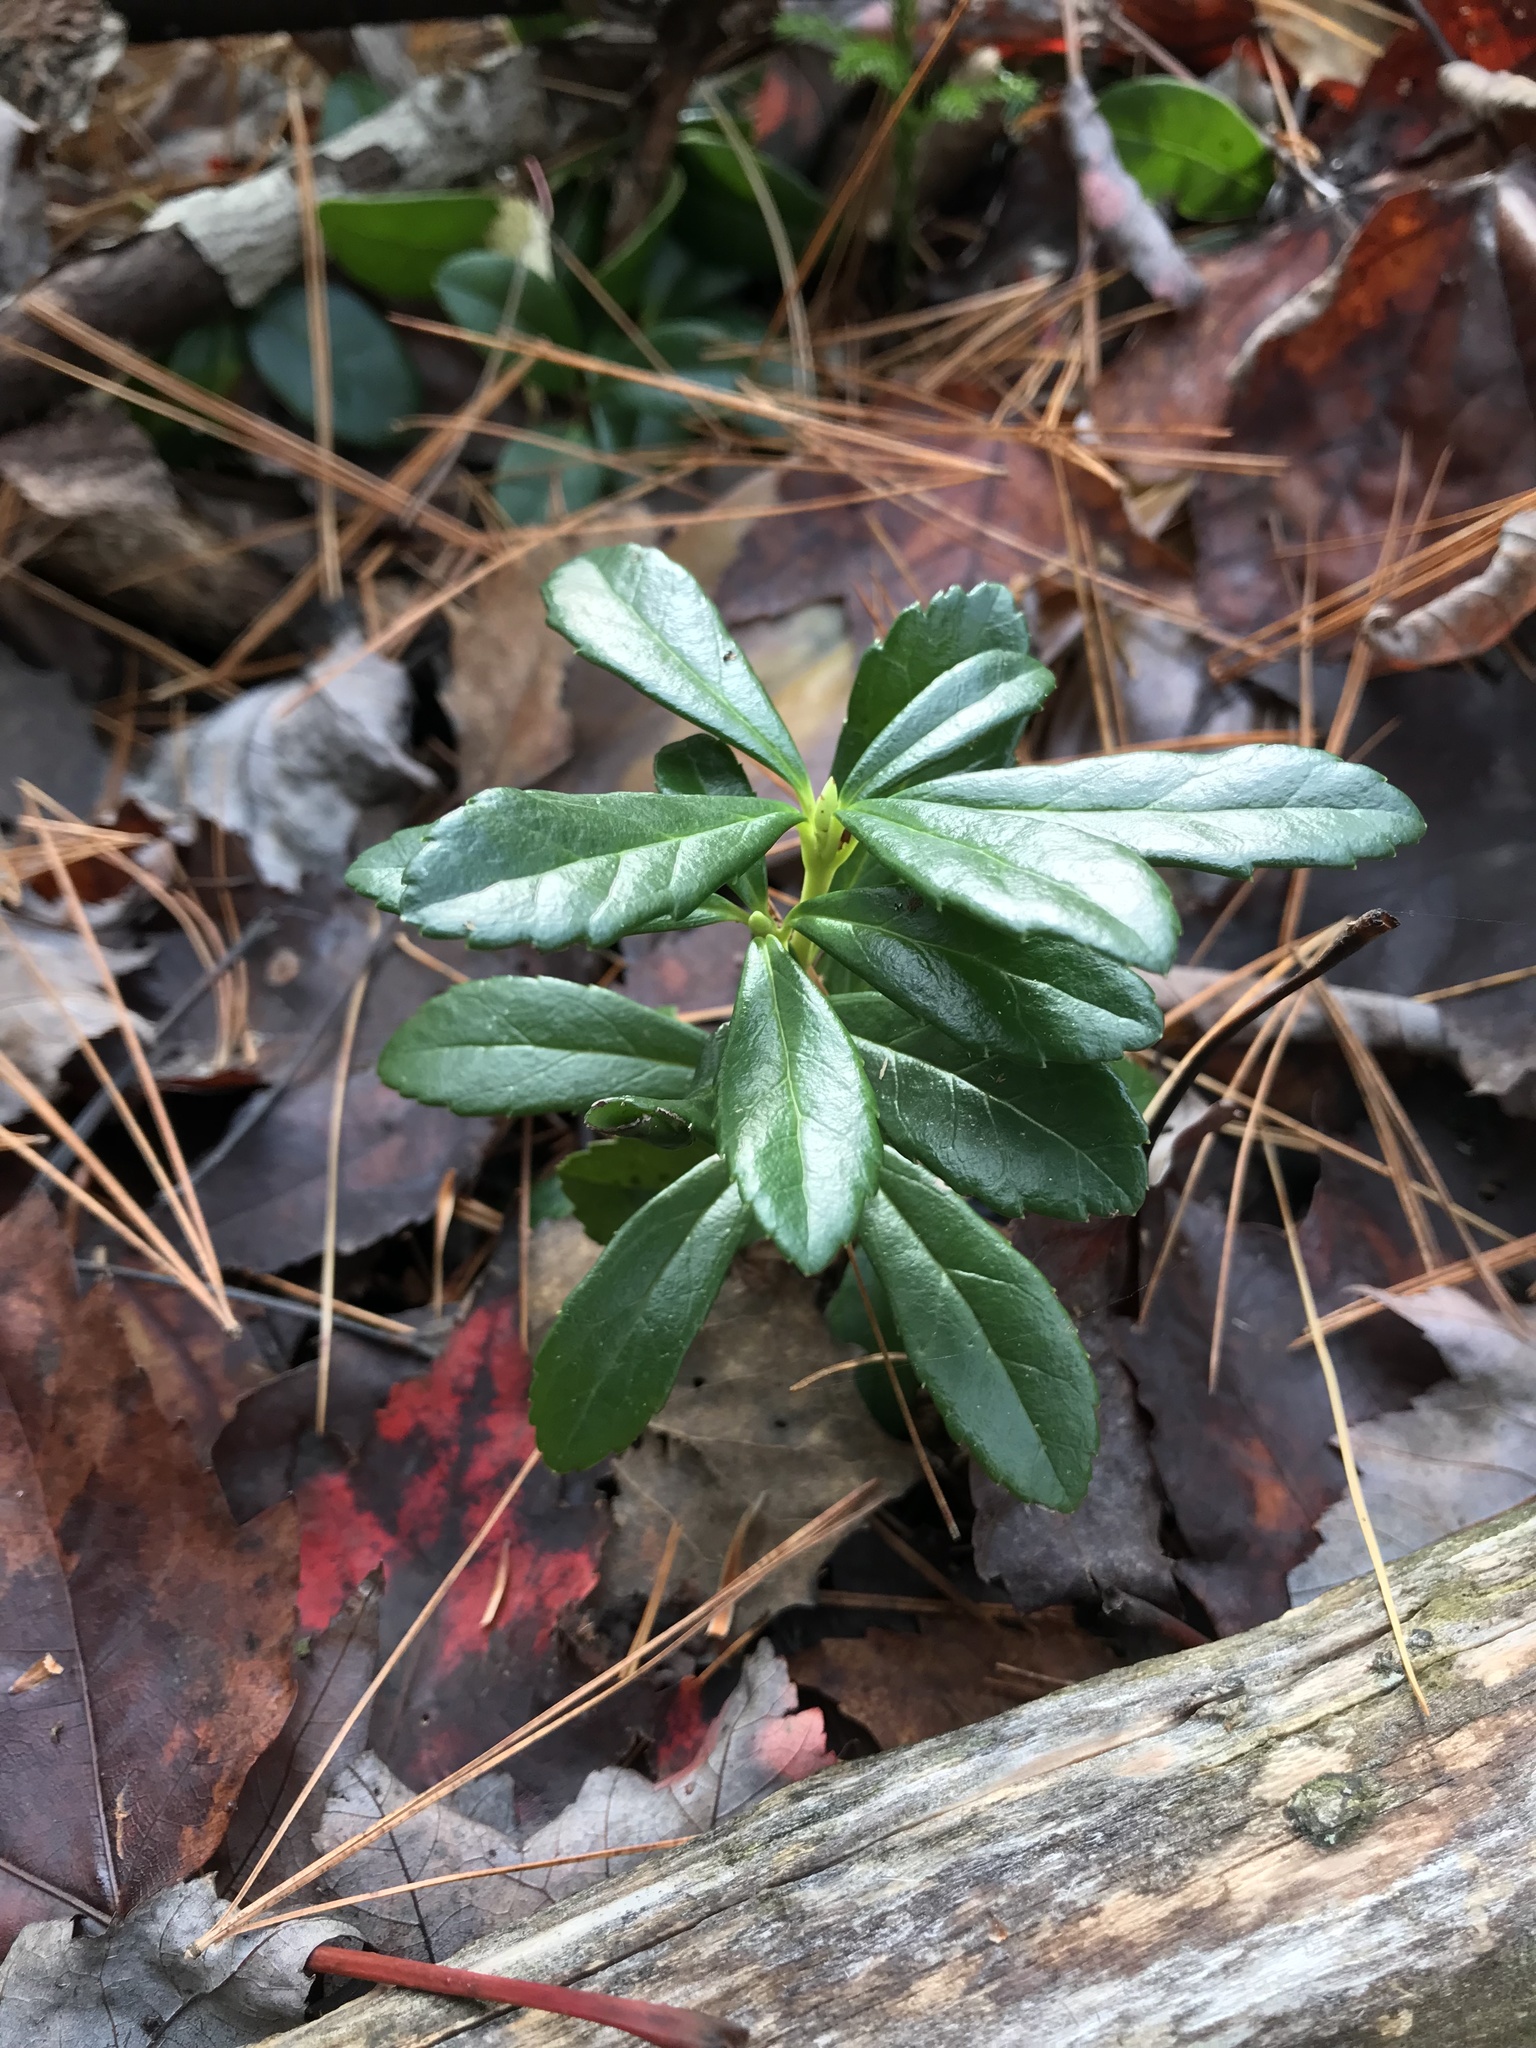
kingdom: Plantae
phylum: Tracheophyta
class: Magnoliopsida
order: Ericales
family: Ericaceae
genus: Chimaphila
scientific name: Chimaphila umbellata
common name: Pipsissewa
